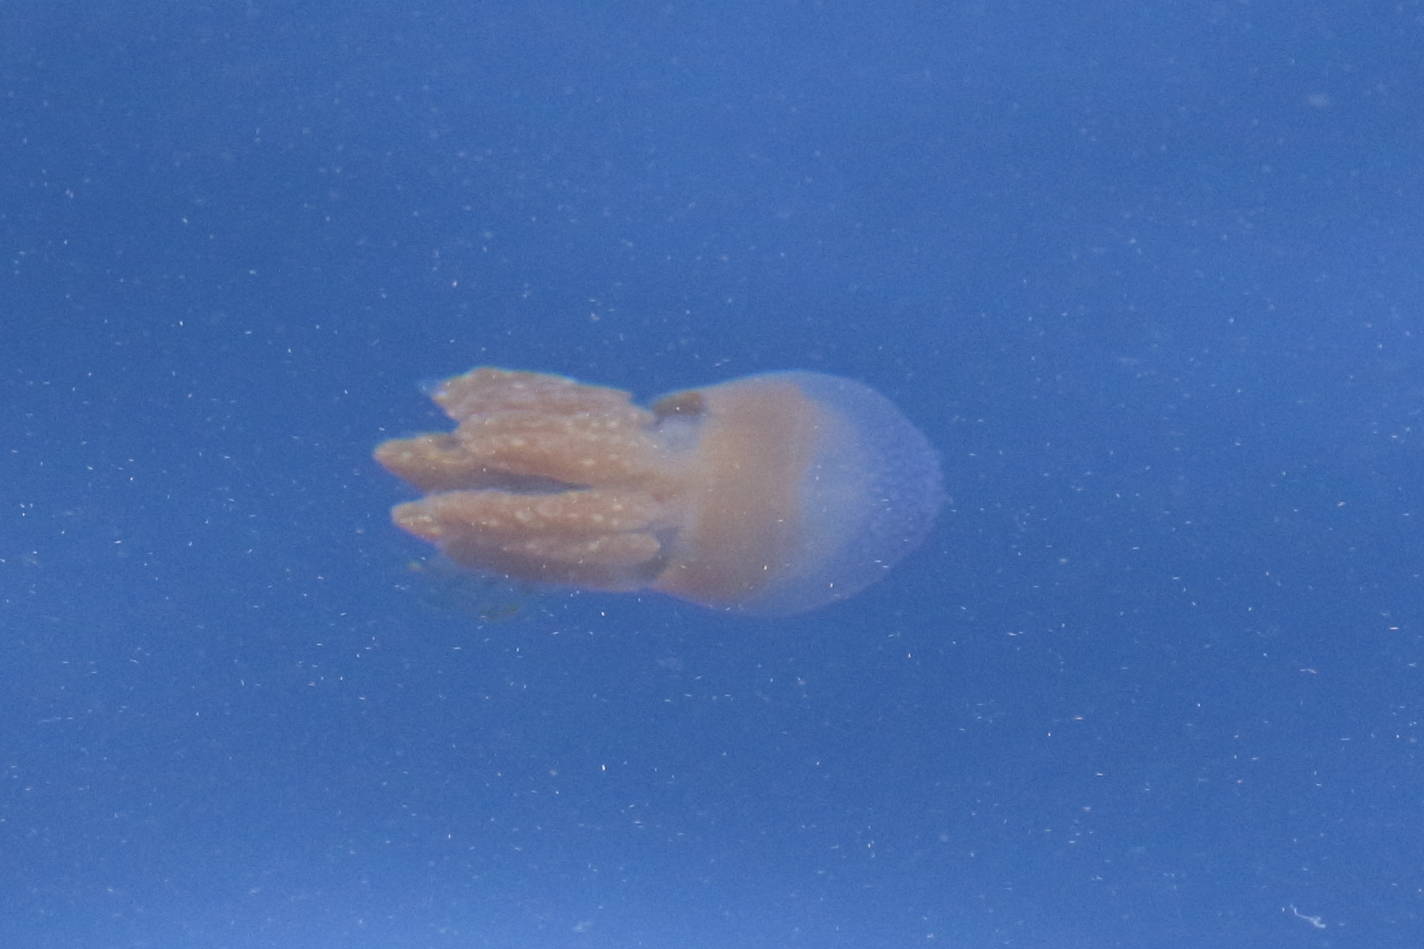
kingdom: Animalia
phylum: Cnidaria
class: Scyphozoa
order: Rhizostomeae
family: Versurigidae
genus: Versuriga
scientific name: Versuriga anadyomene
